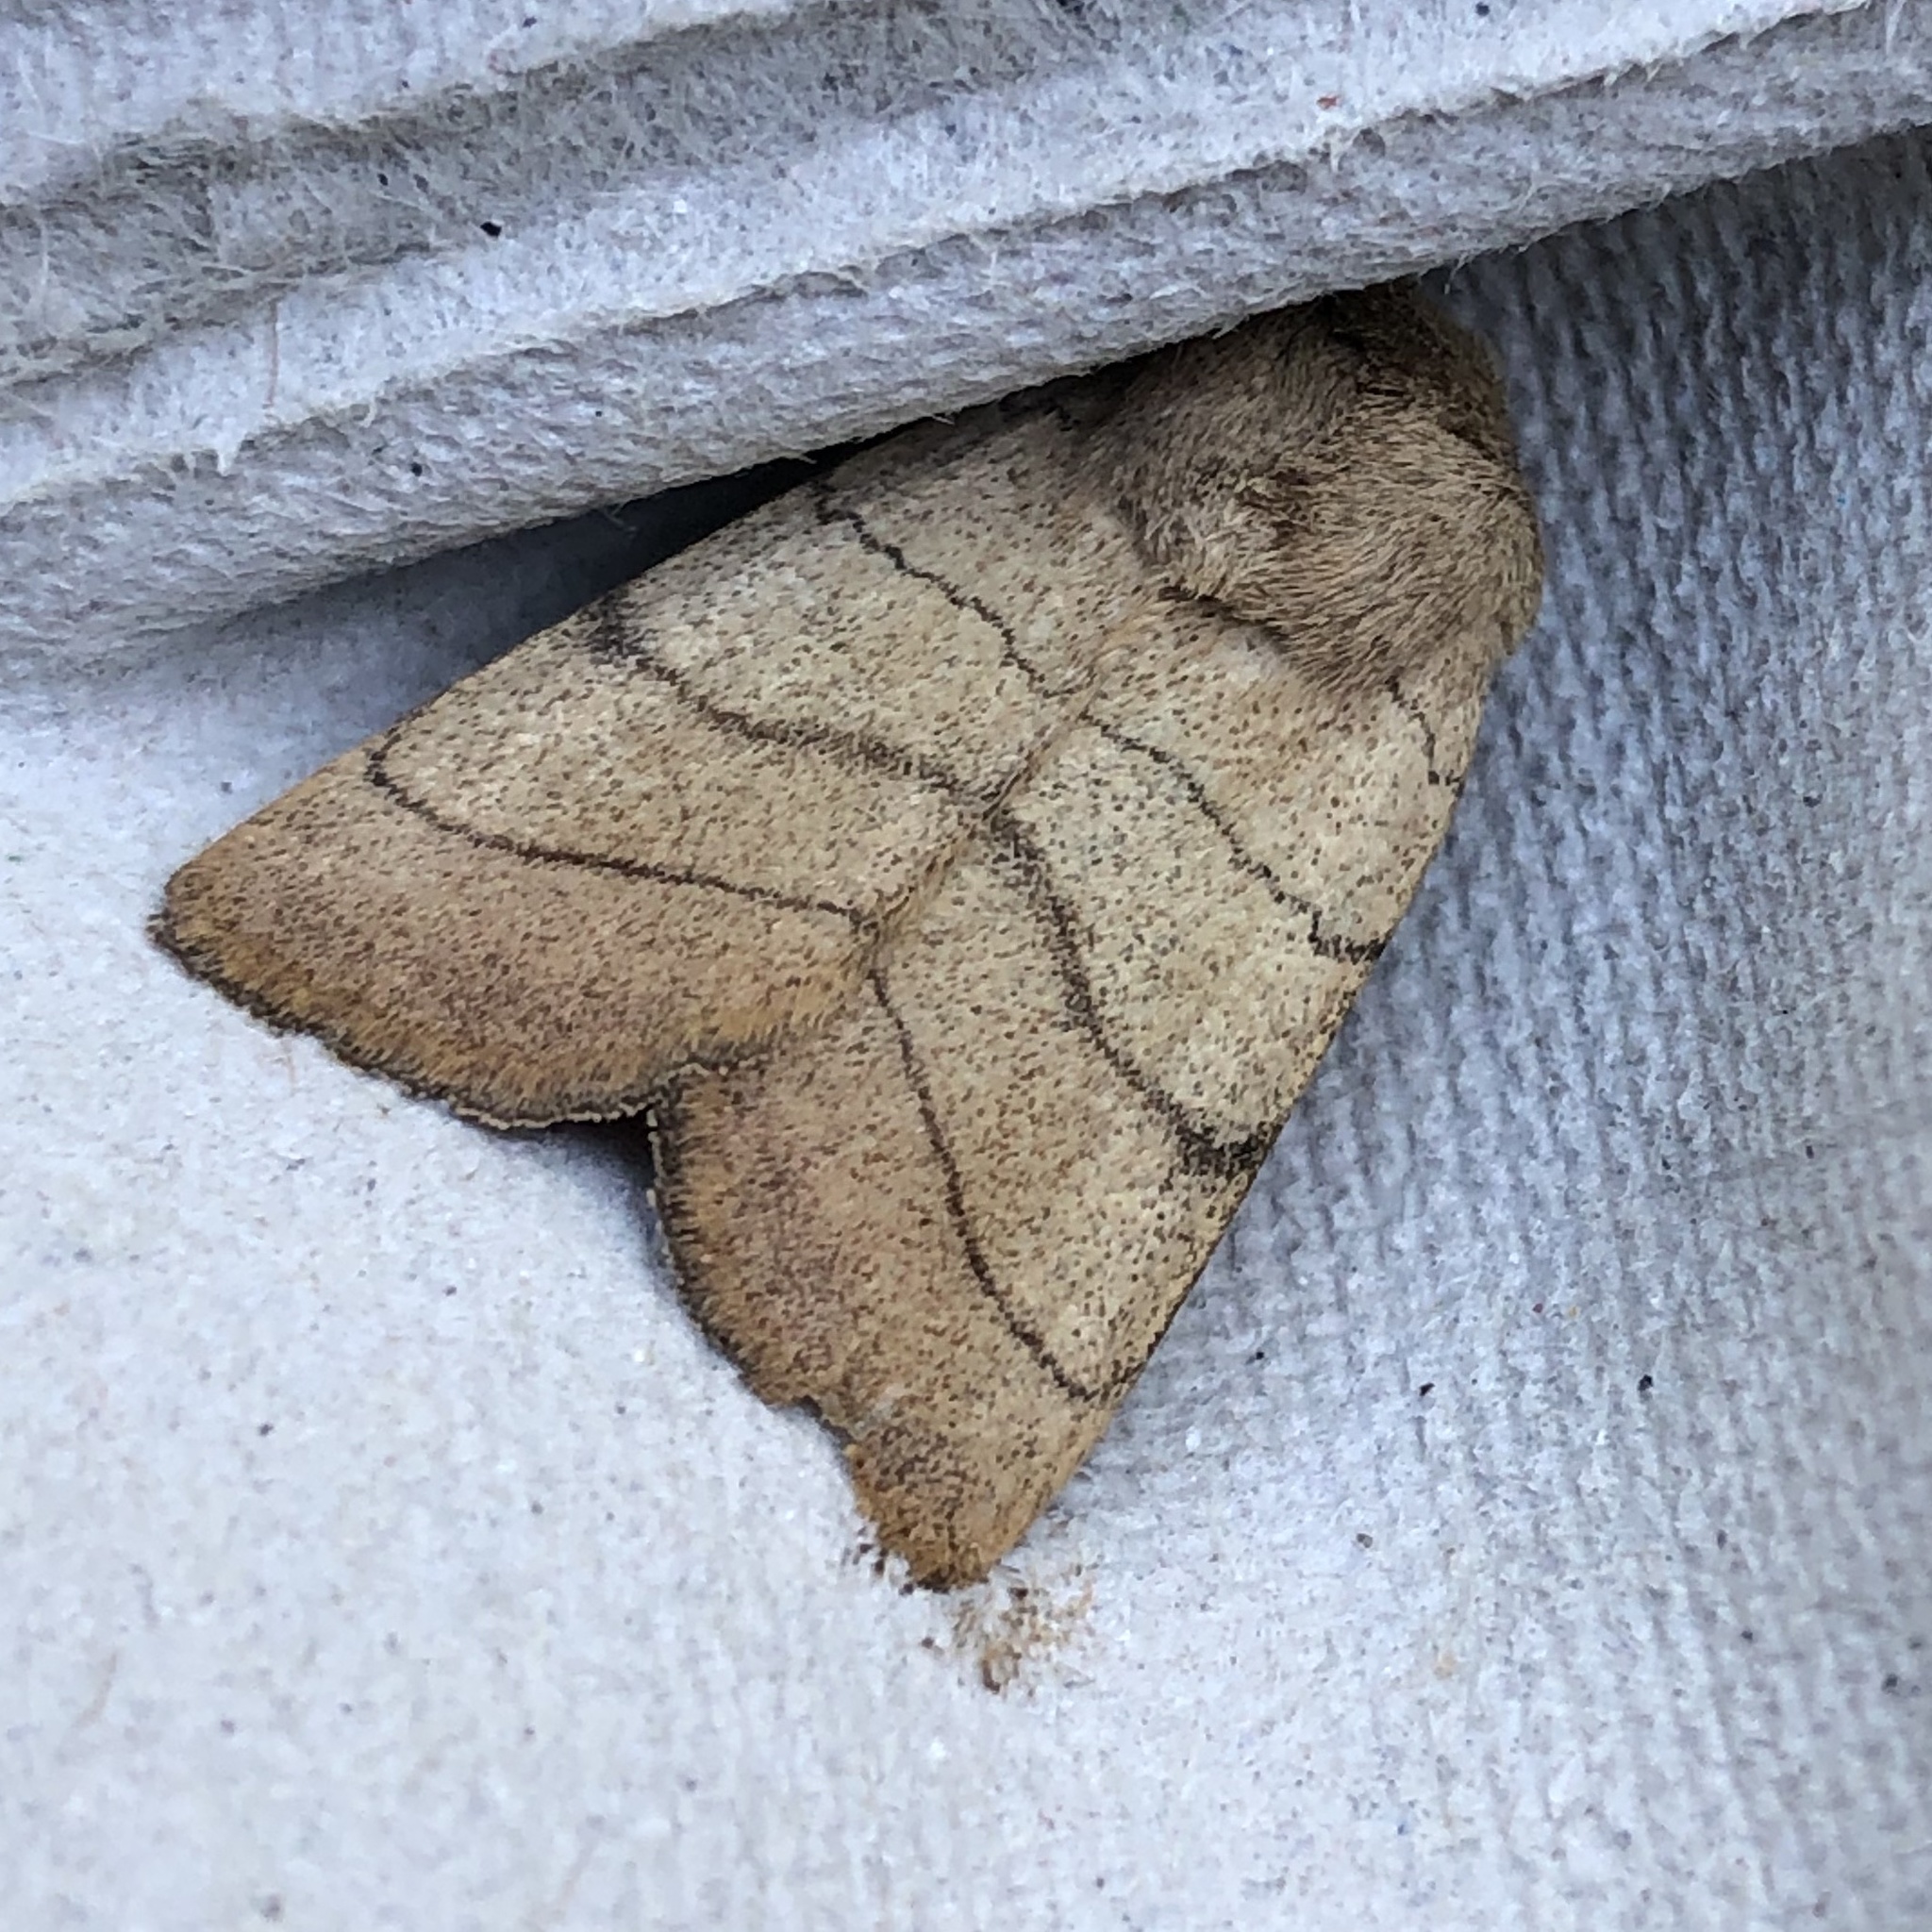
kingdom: Animalia
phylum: Arthropoda
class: Insecta
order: Lepidoptera
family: Noctuidae
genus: Charanyca
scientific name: Charanyca trigrammica
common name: Treble lines
